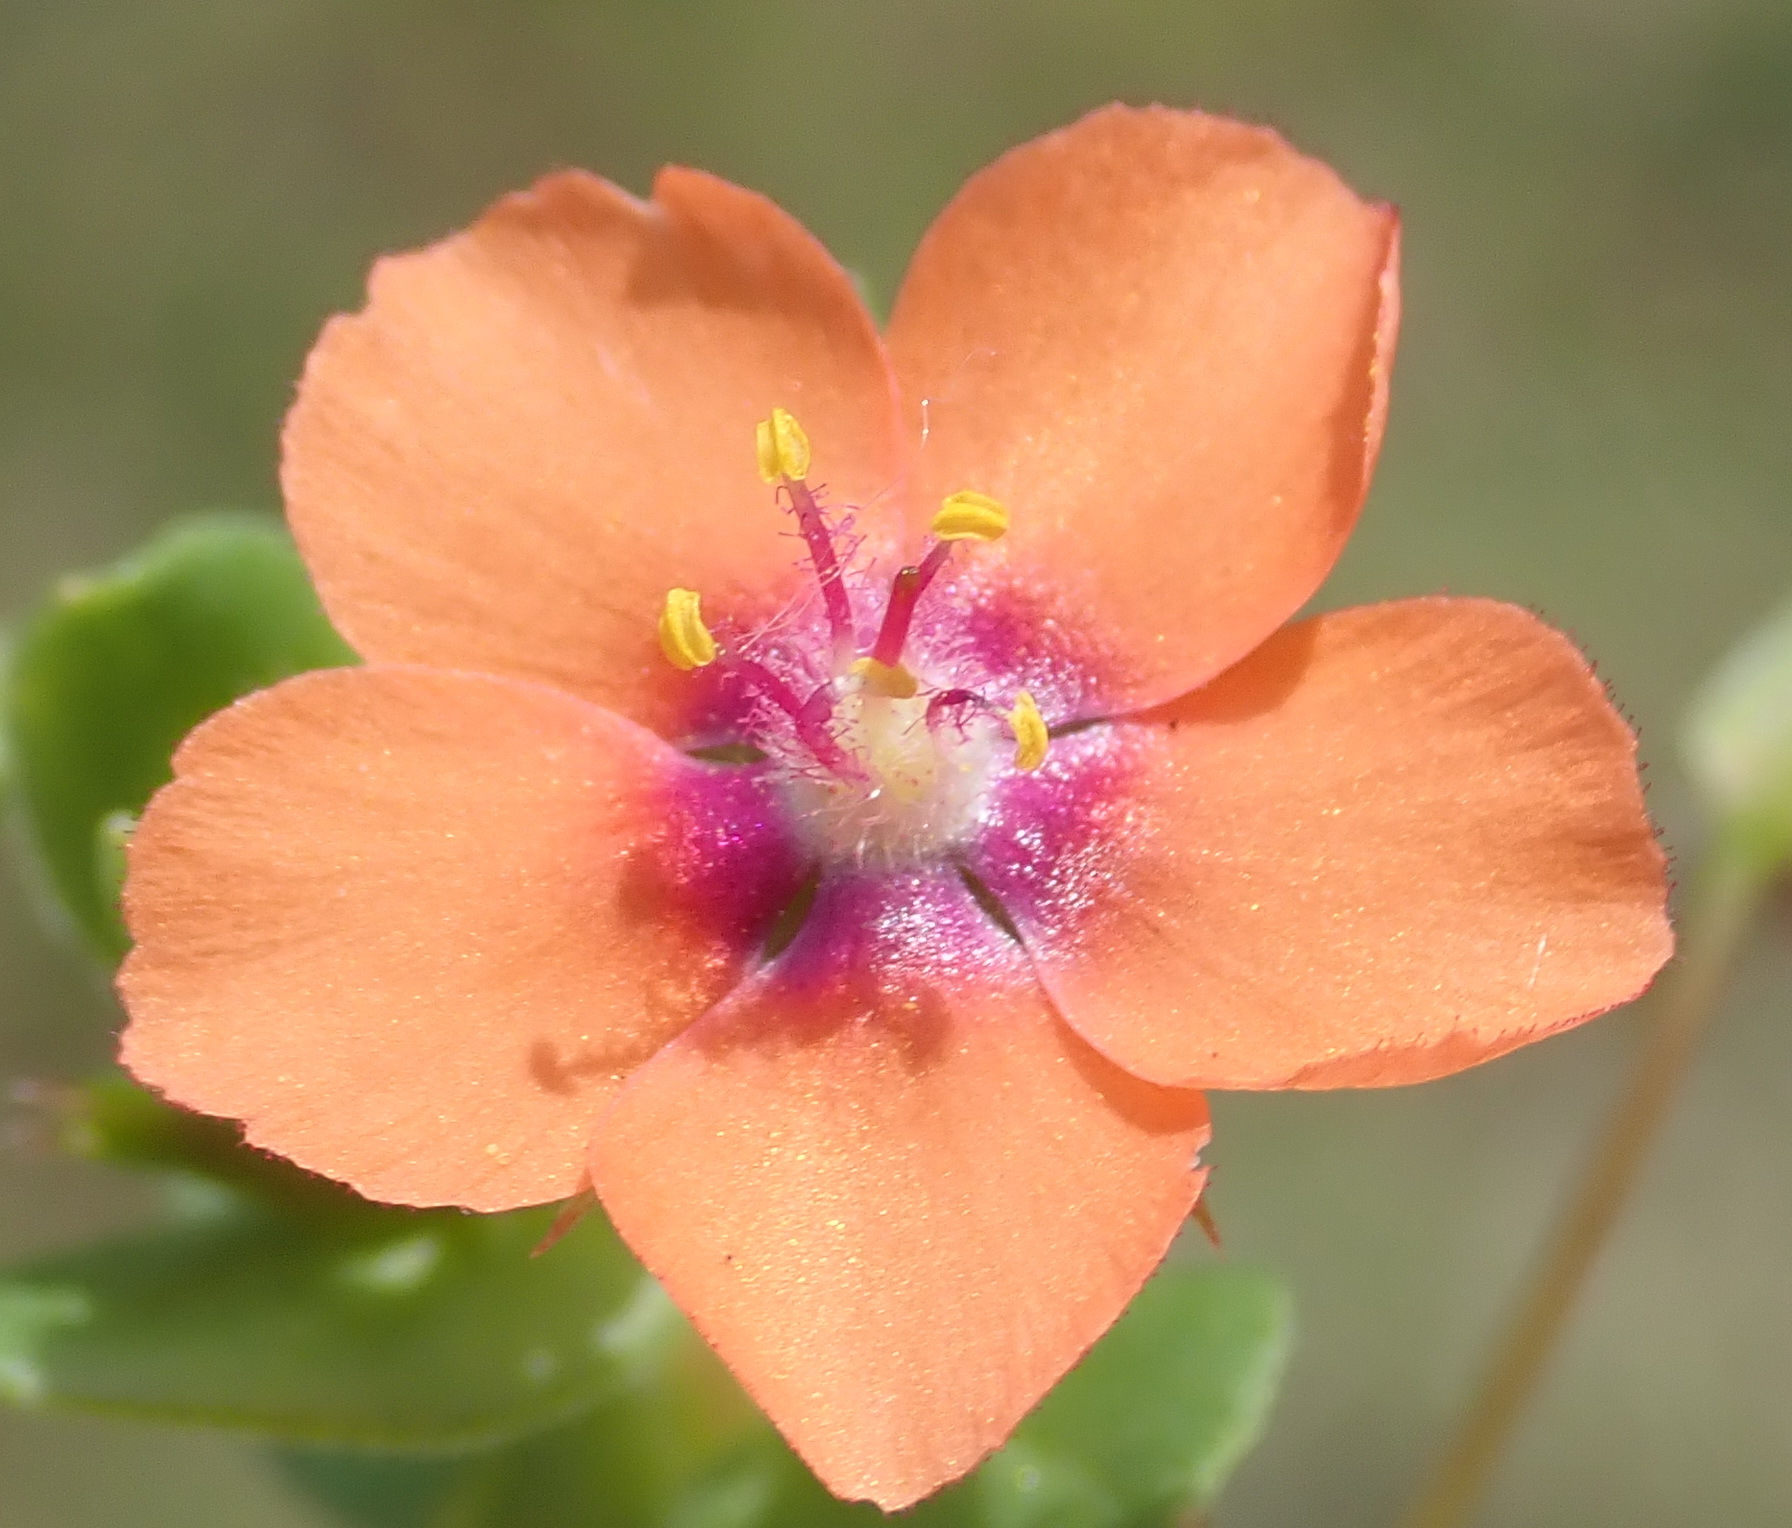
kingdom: Plantae
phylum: Tracheophyta
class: Magnoliopsida
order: Ericales
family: Primulaceae
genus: Lysimachia
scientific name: Lysimachia arvensis
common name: Scarlet pimpernel
